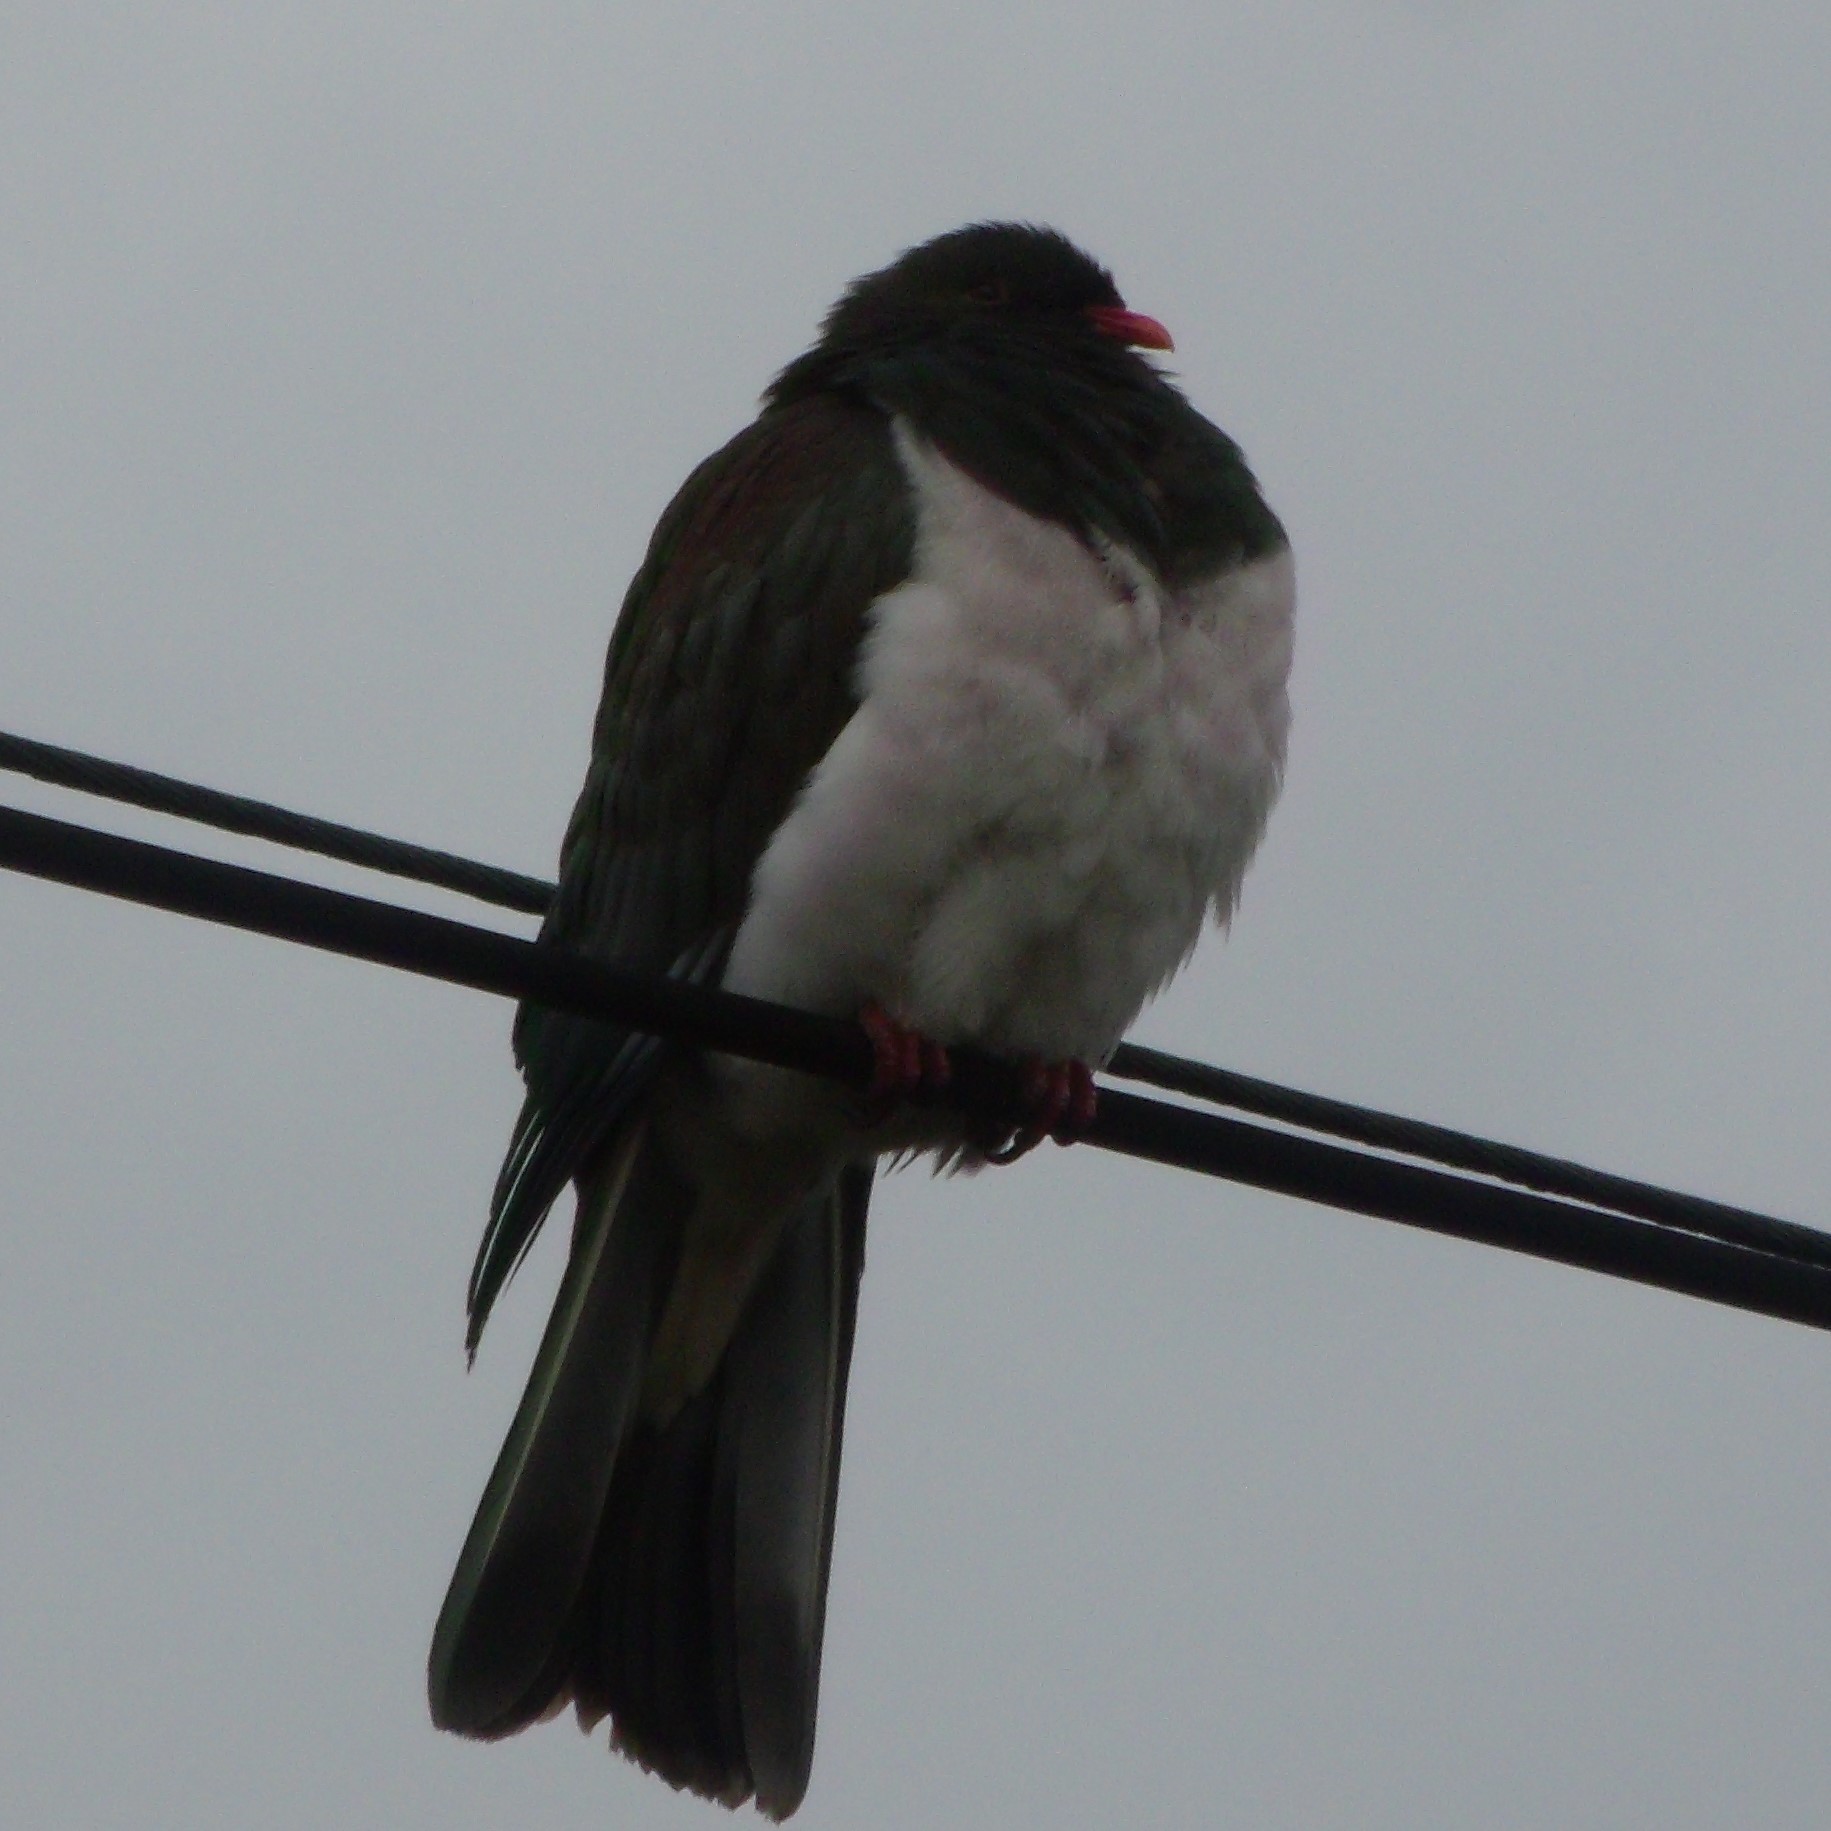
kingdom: Animalia
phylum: Chordata
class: Aves
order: Columbiformes
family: Columbidae
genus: Hemiphaga
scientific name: Hemiphaga novaeseelandiae
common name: New zealand pigeon
